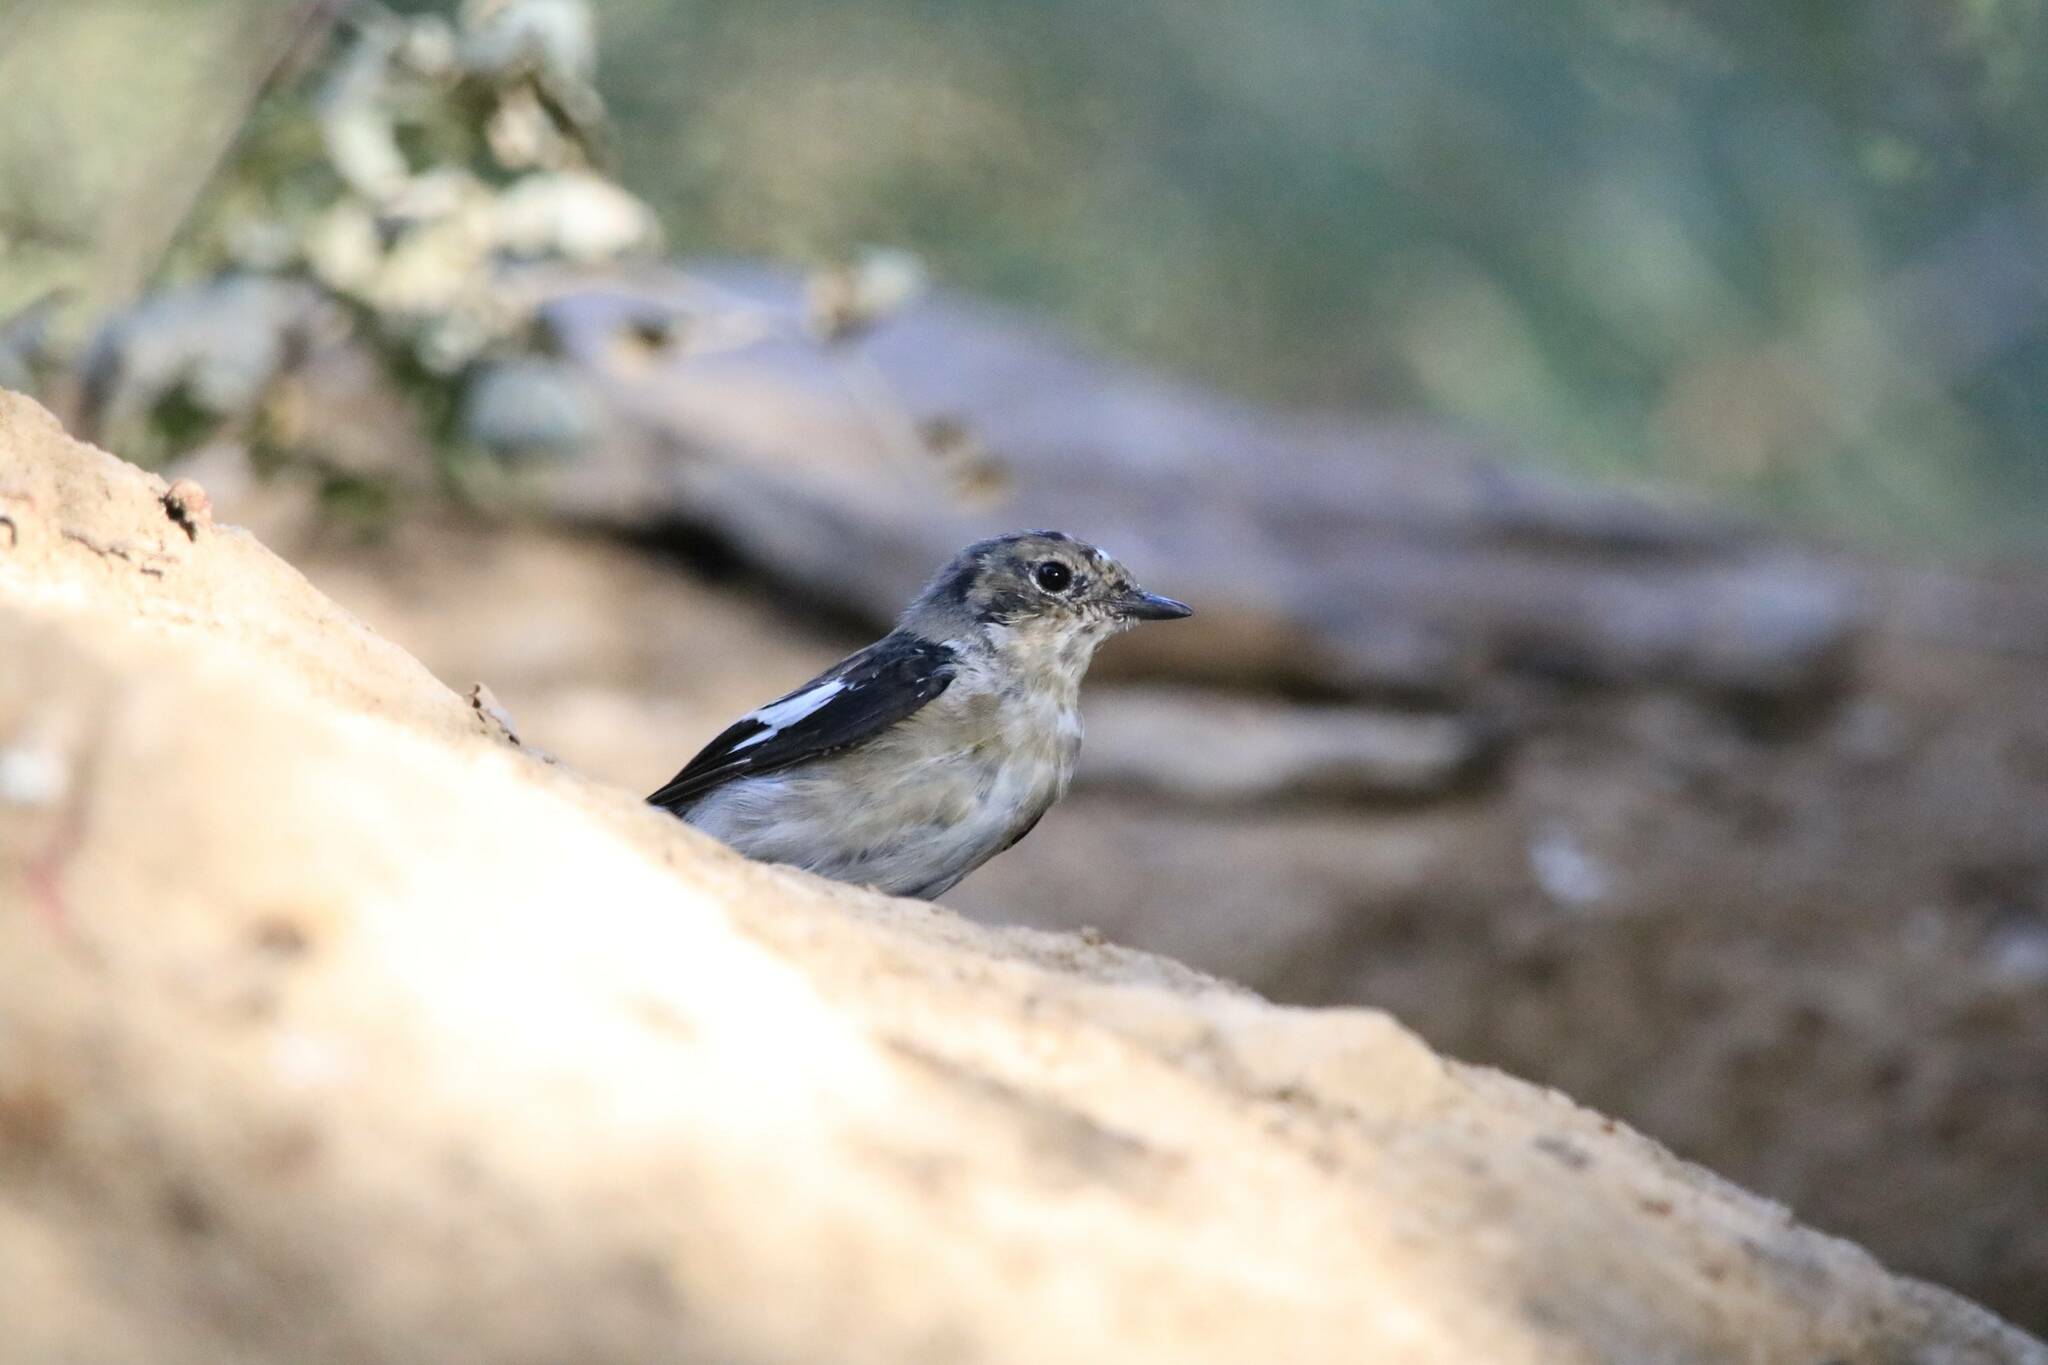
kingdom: Animalia
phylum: Chordata
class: Aves
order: Passeriformes
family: Muscicapidae
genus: Ficedula
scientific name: Ficedula speculigera
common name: Atlas pied flycatcher
